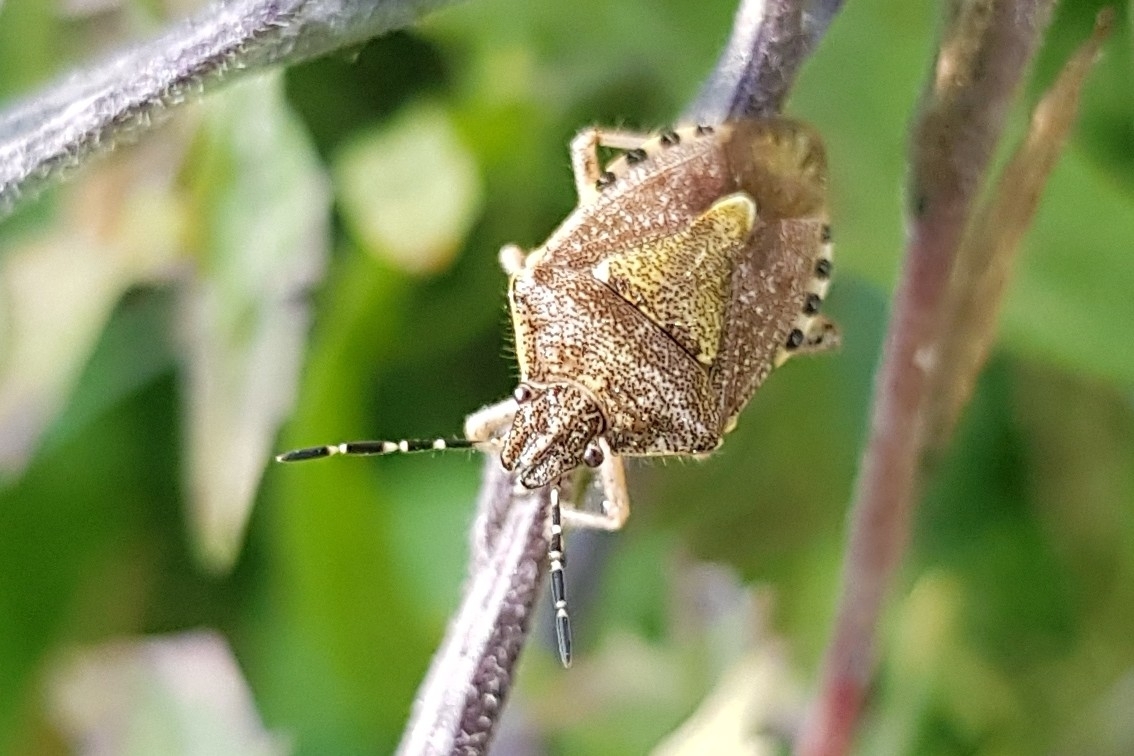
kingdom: Animalia
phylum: Arthropoda
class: Insecta
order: Hemiptera
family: Pentatomidae
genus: Dolycoris
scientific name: Dolycoris baccarum
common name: Sloe bug
